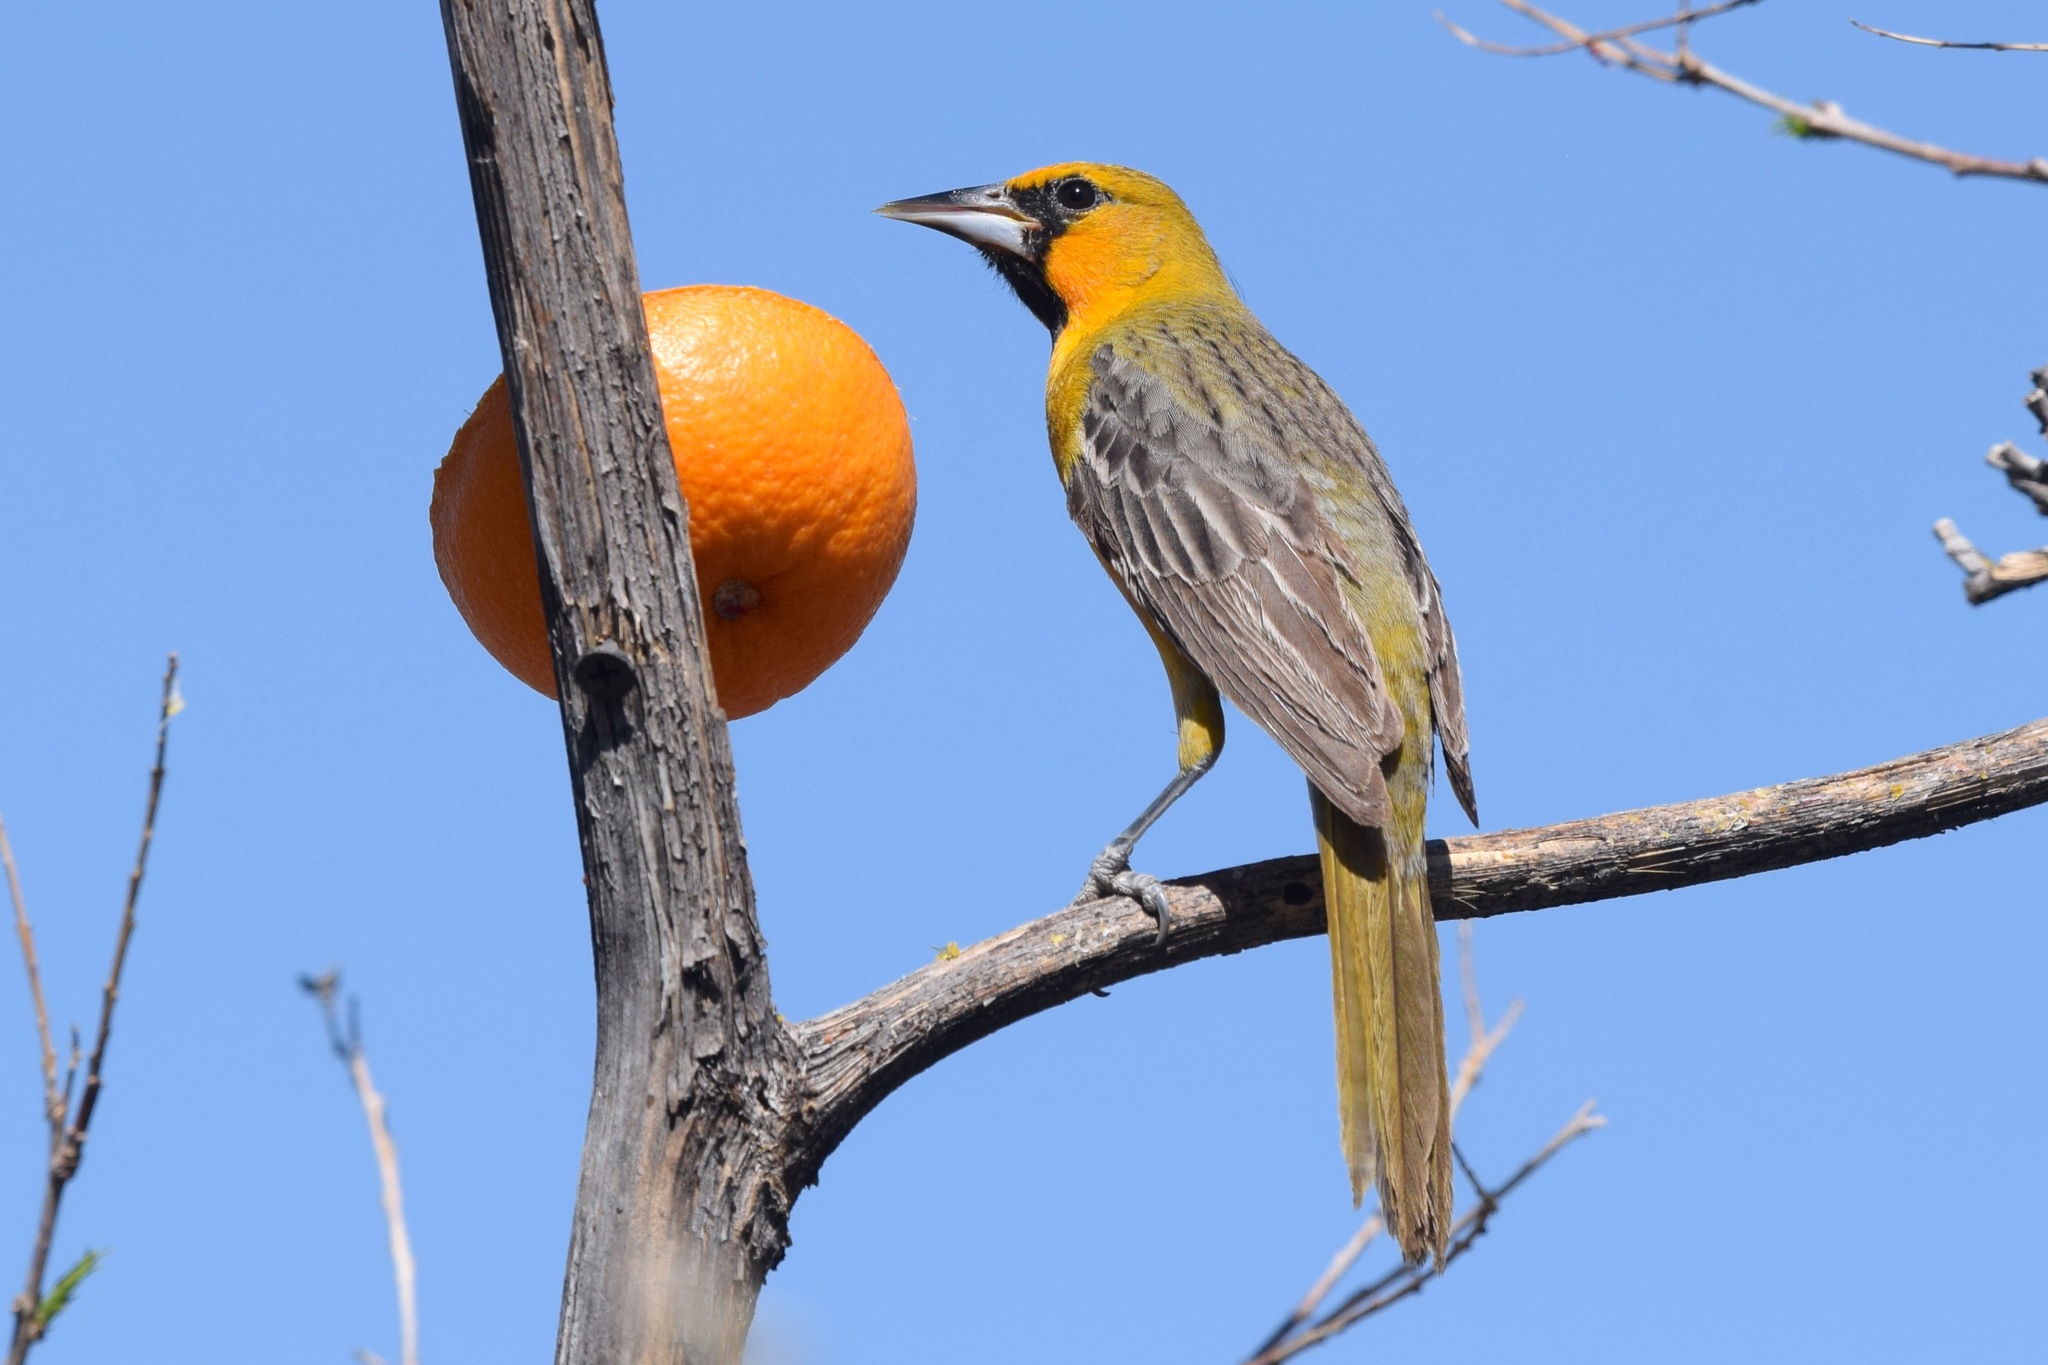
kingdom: Animalia
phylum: Chordata
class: Aves
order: Passeriformes
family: Icteridae
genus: Icterus
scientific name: Icterus pustulatus
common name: Streak-backed oriole
